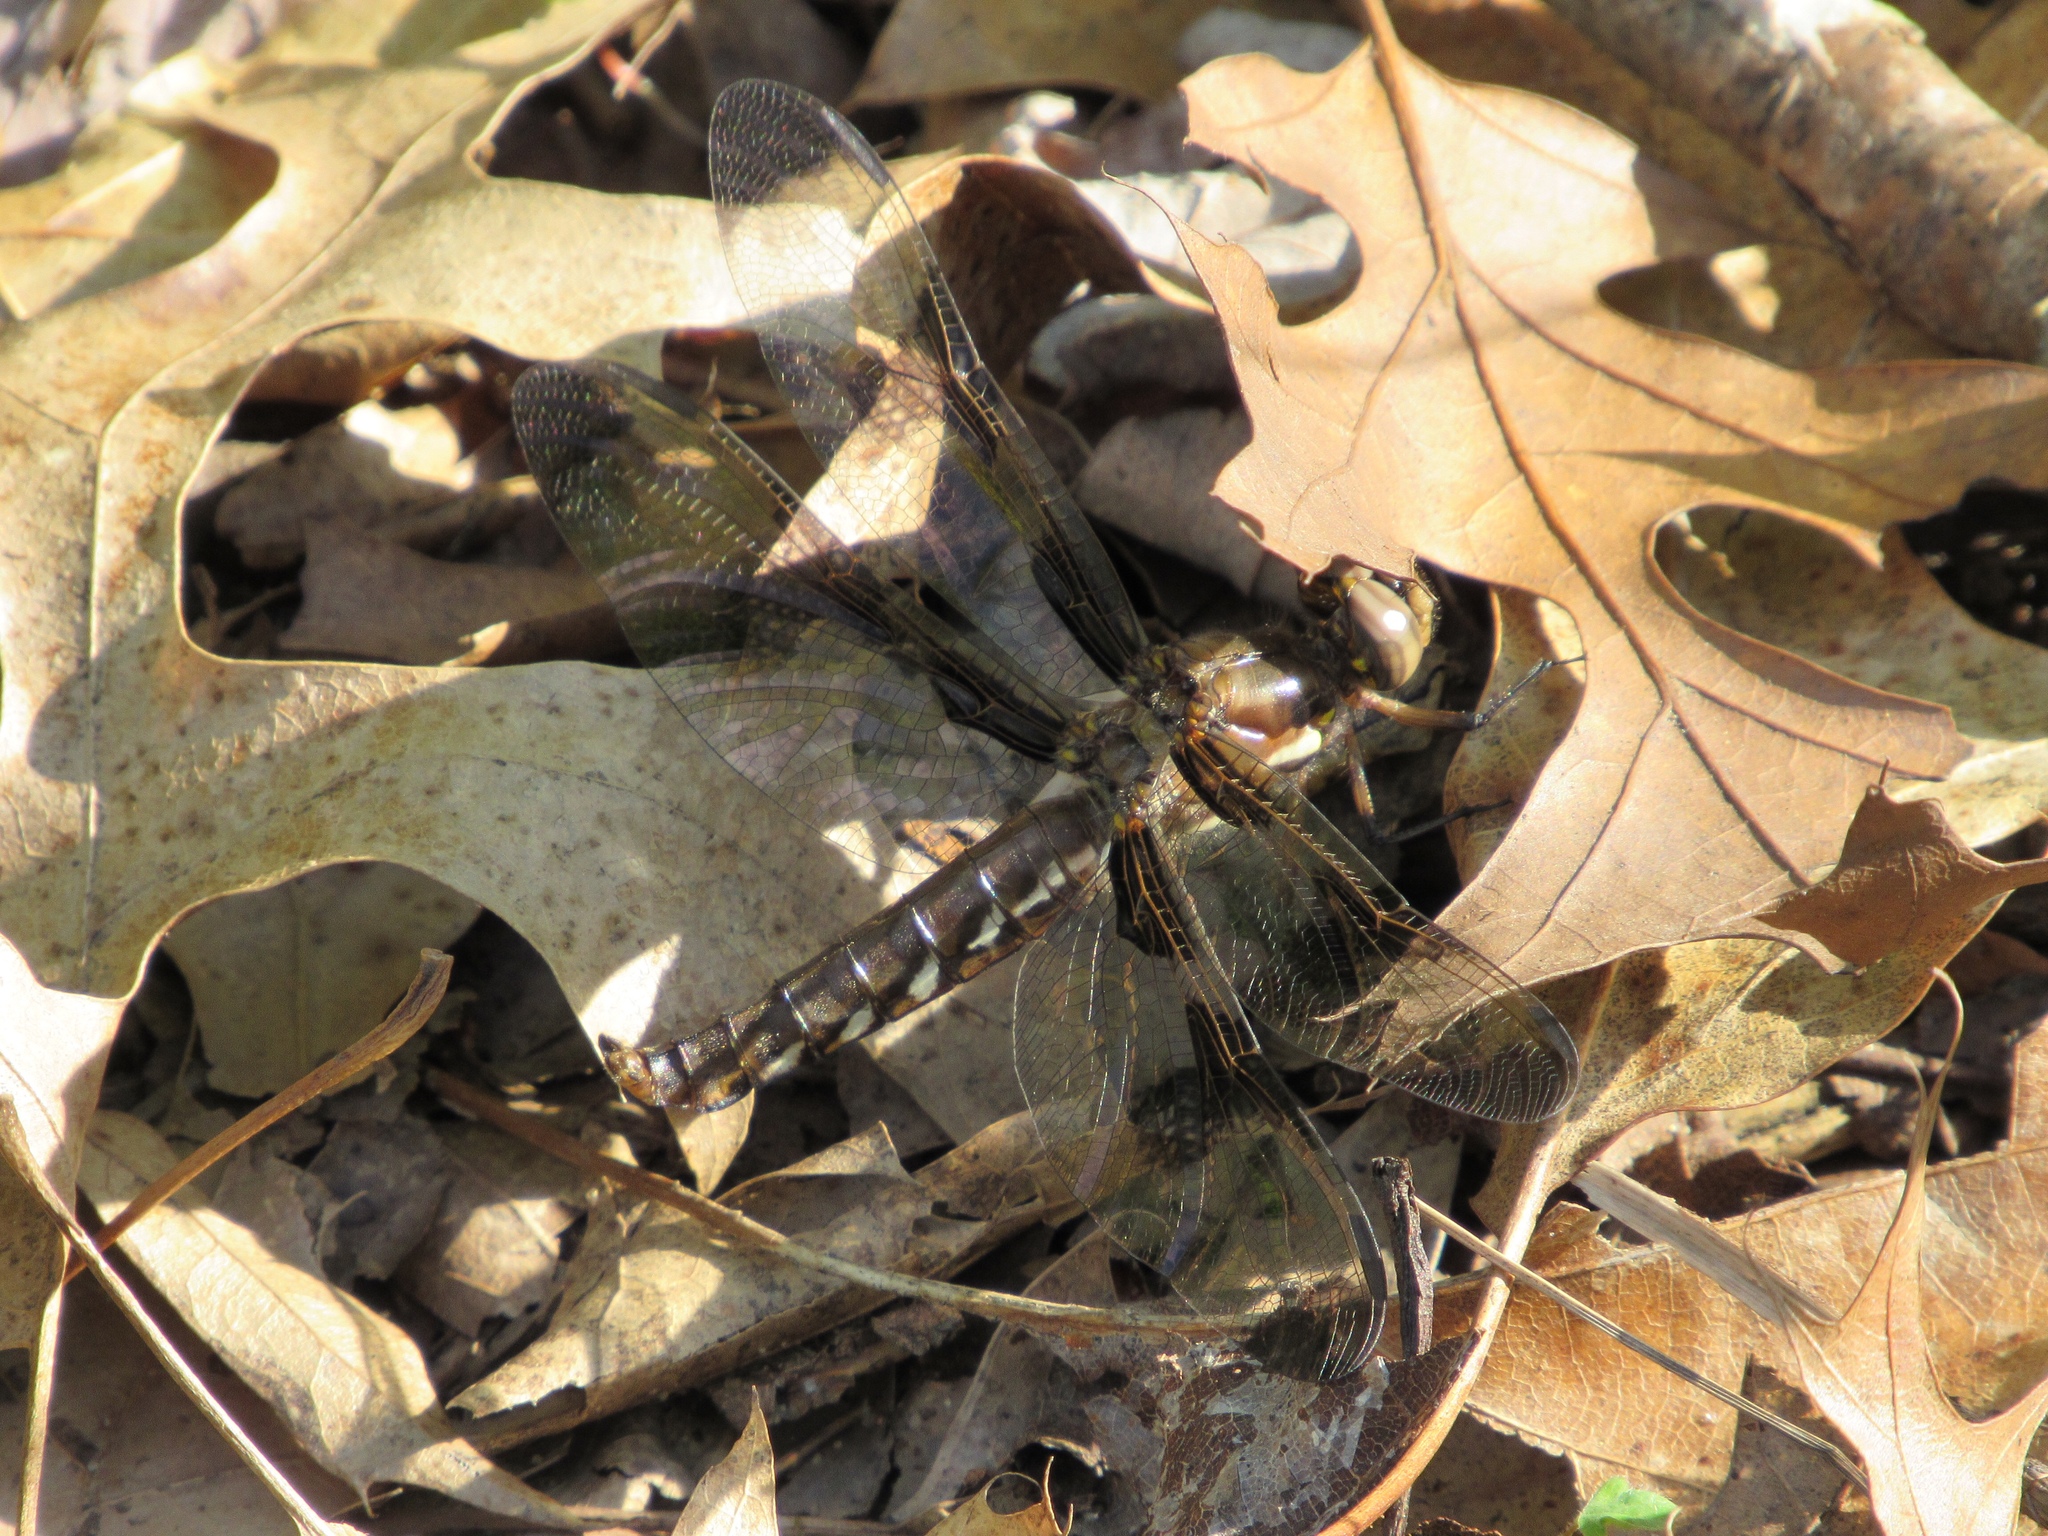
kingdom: Animalia
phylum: Arthropoda
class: Insecta
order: Odonata
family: Libellulidae
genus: Plathemis
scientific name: Plathemis lydia
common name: Common whitetail
